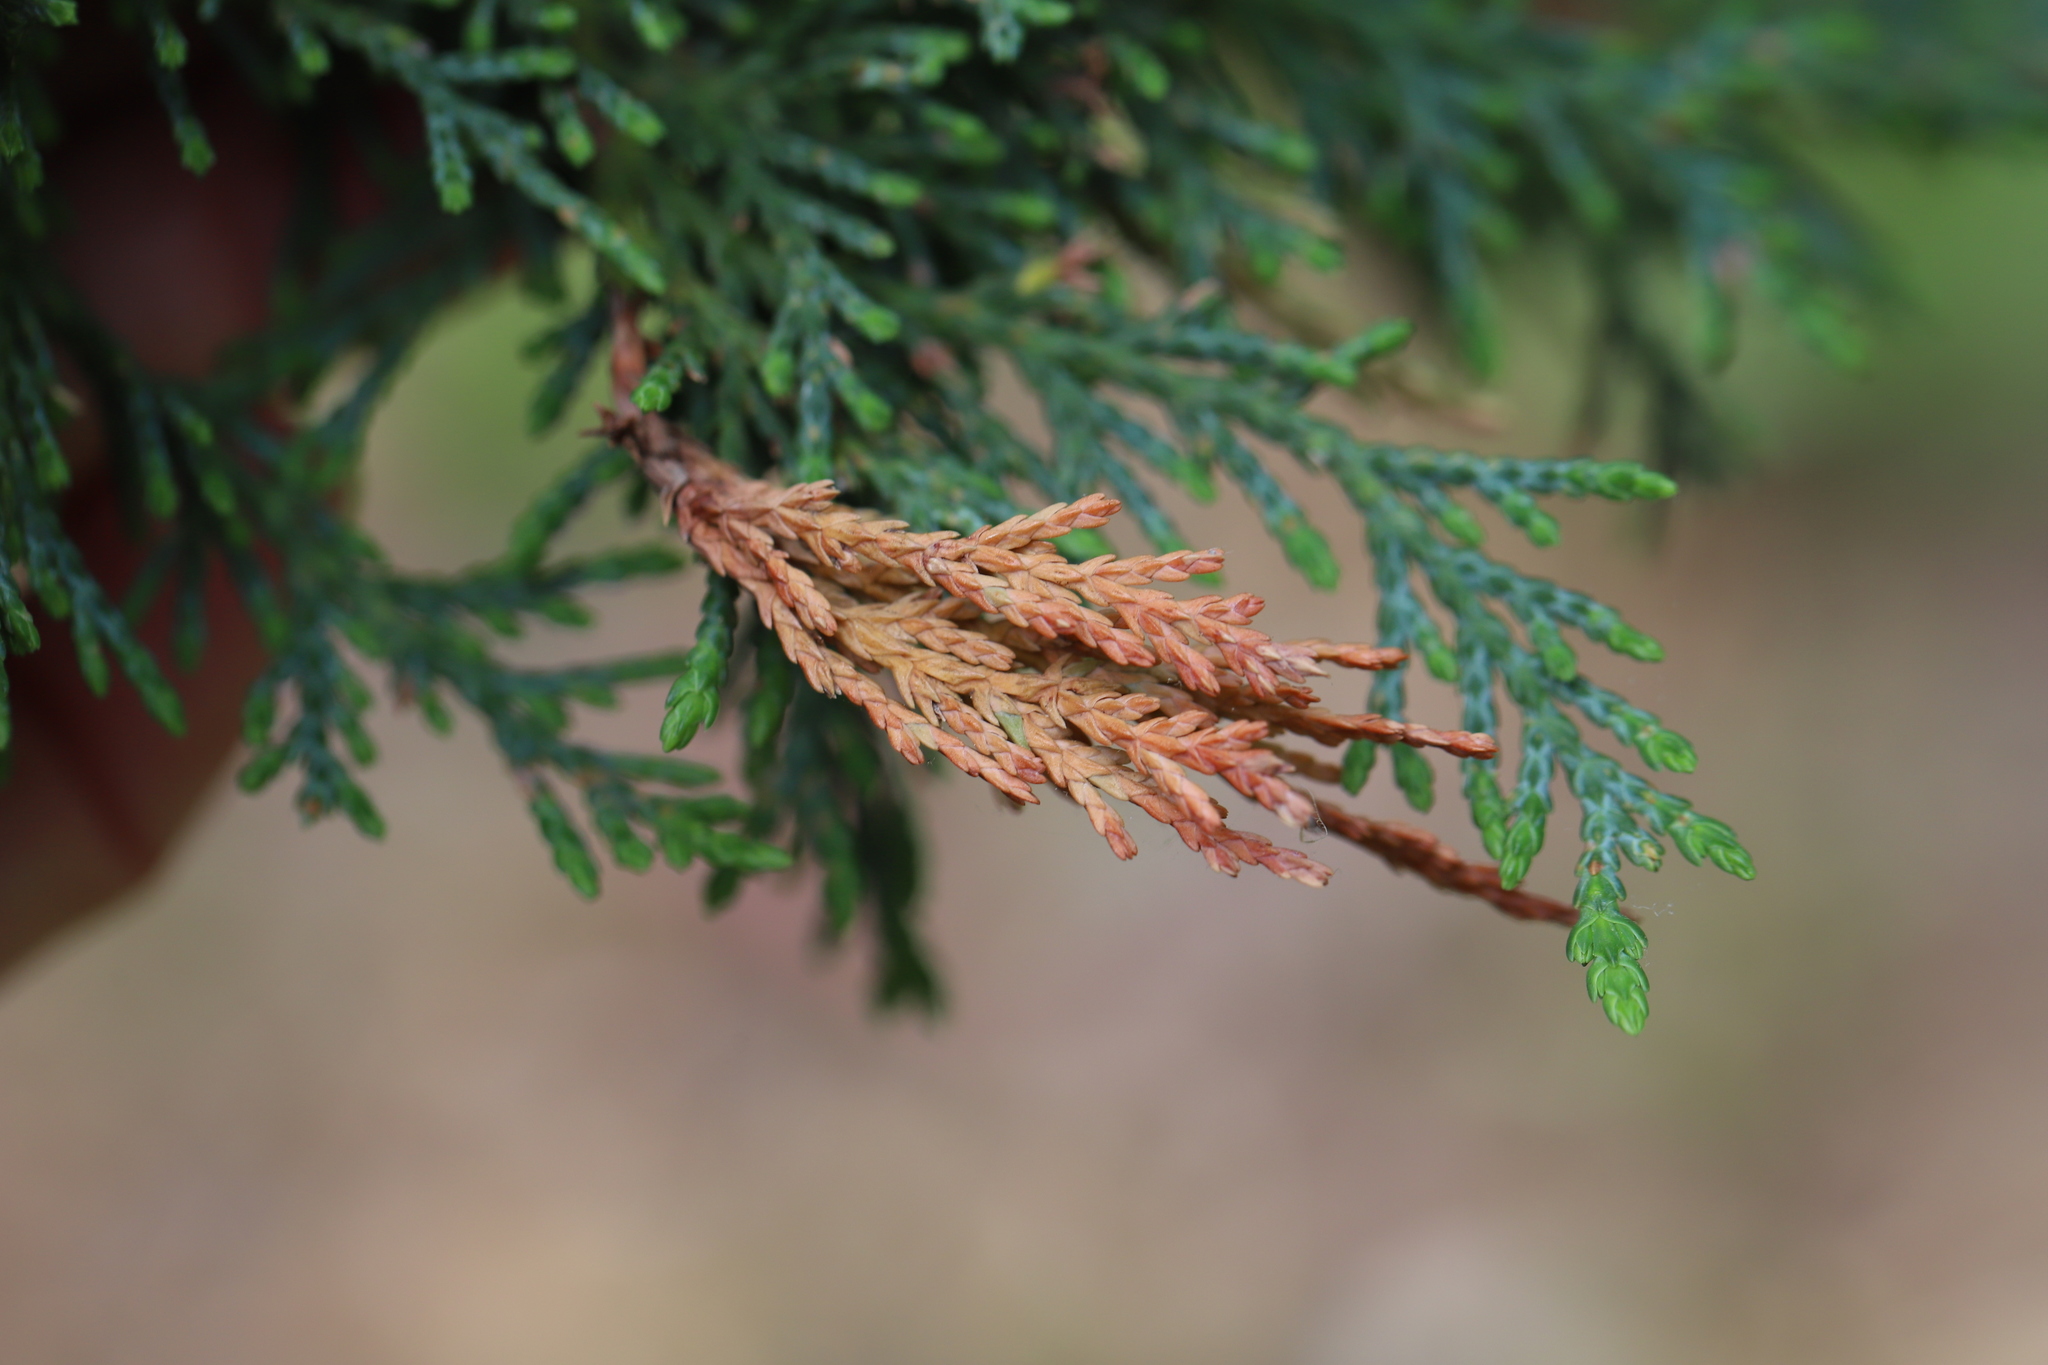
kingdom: Fungi
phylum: Ascomycota
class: Sordariomycetes
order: Amphisphaeriales
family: Pestalotiopsidaceae
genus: Pestalotiopsis
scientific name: Pestalotiopsis funerea
